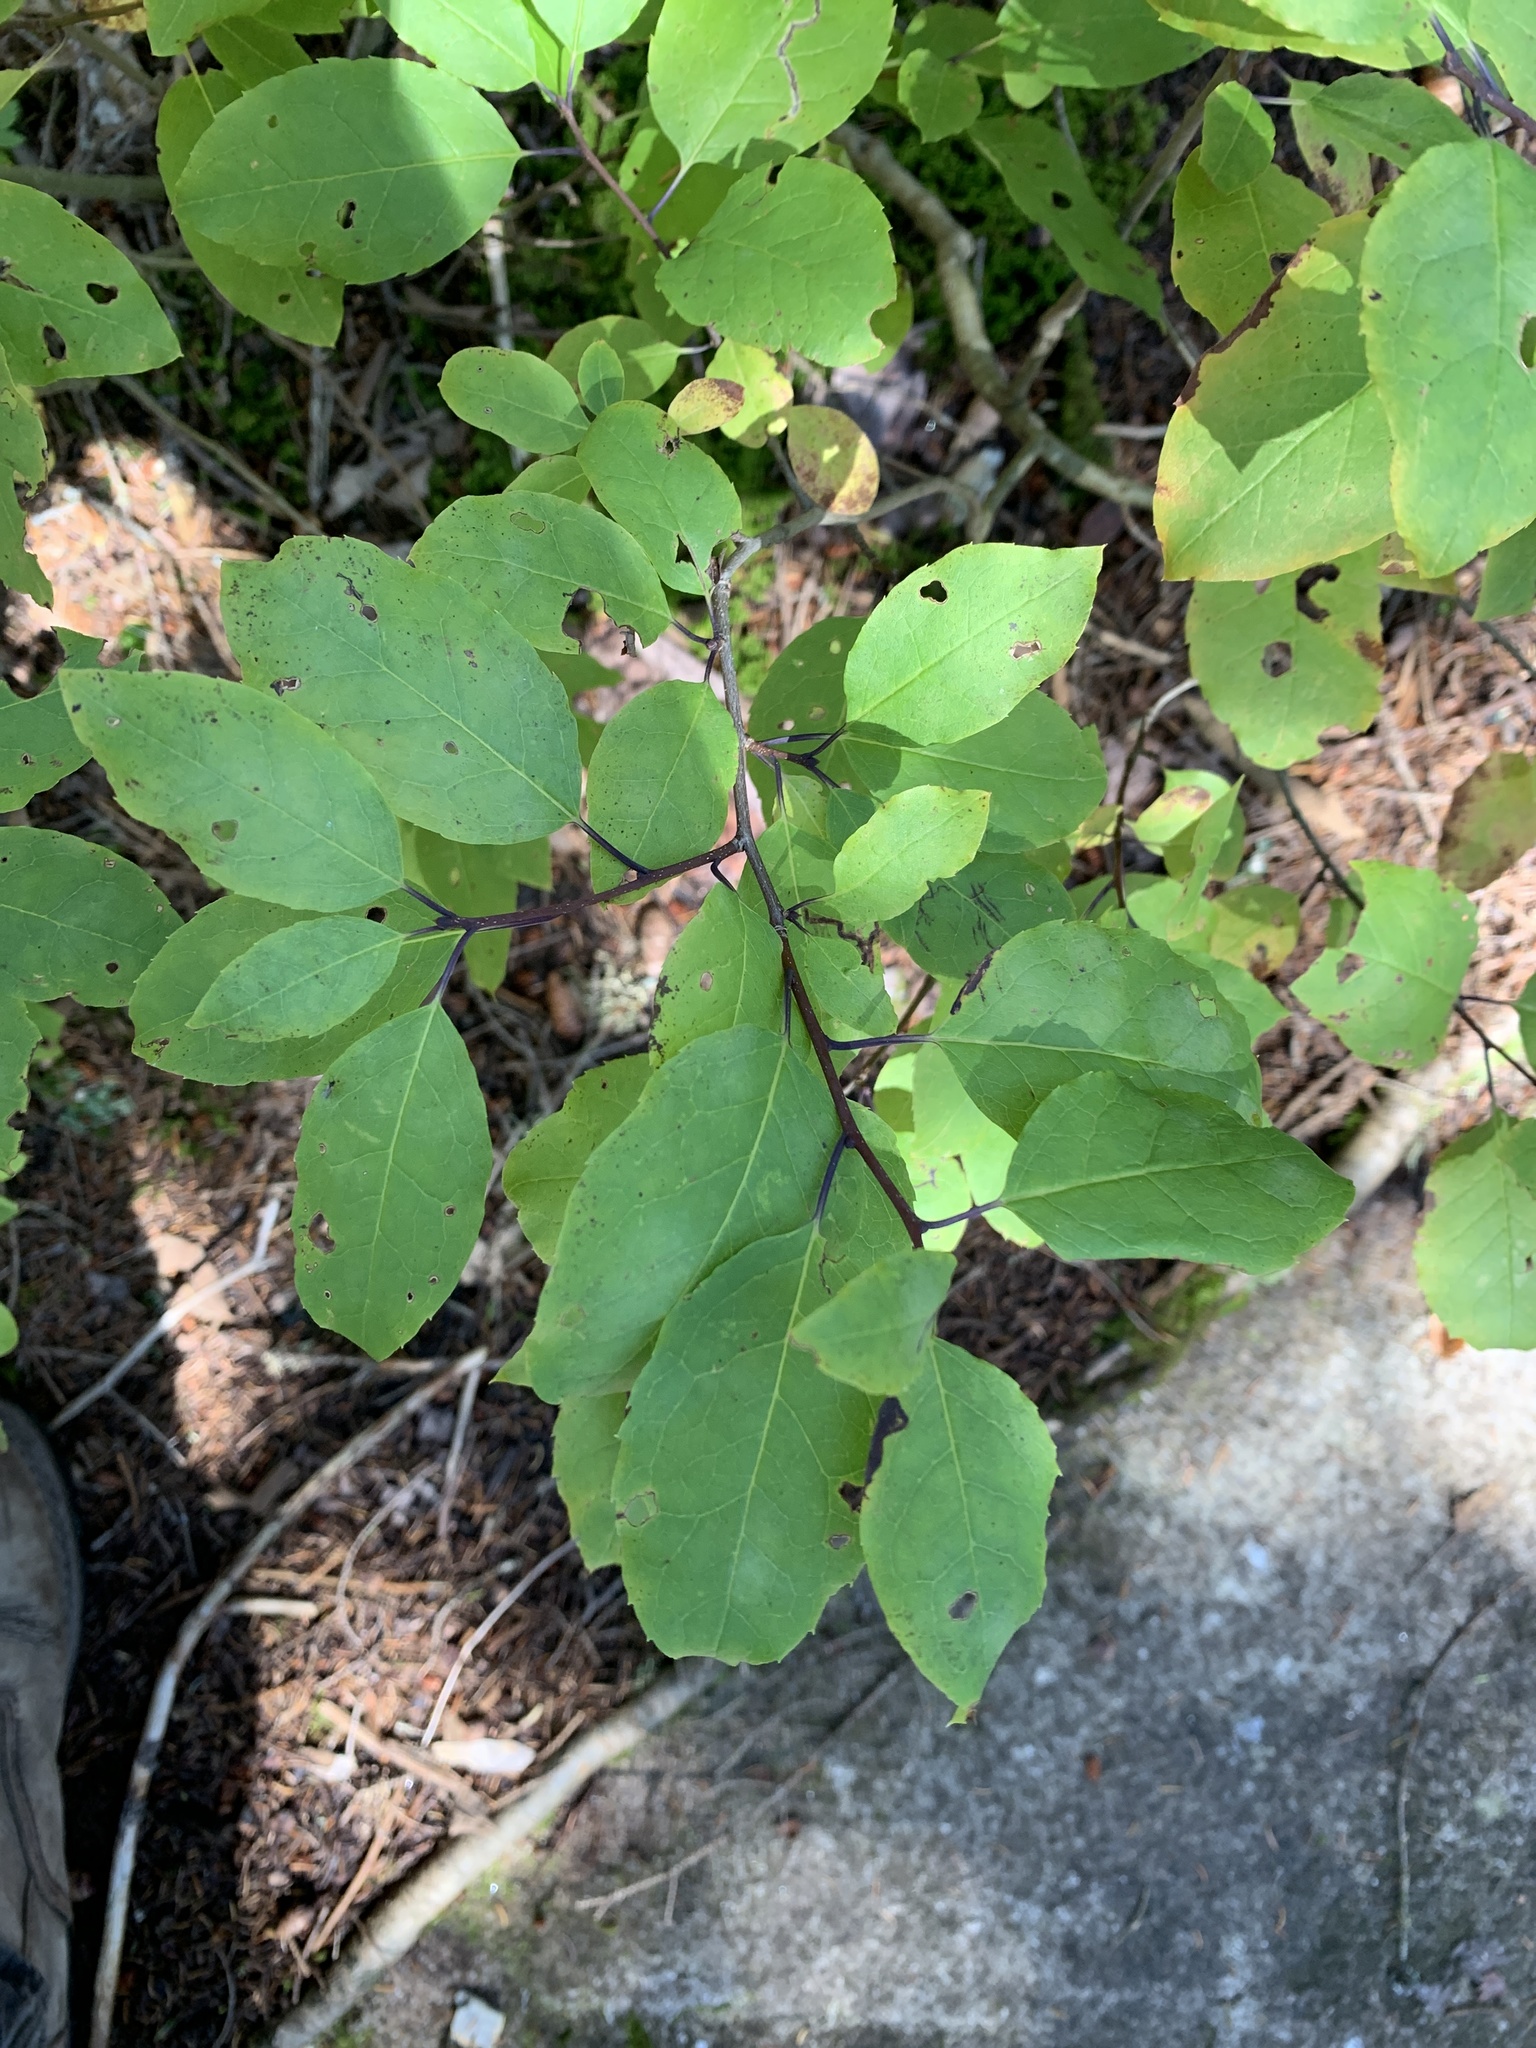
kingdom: Plantae
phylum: Tracheophyta
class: Magnoliopsida
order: Aquifoliales
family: Aquifoliaceae
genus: Ilex
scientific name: Ilex mucronata
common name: Catberry
